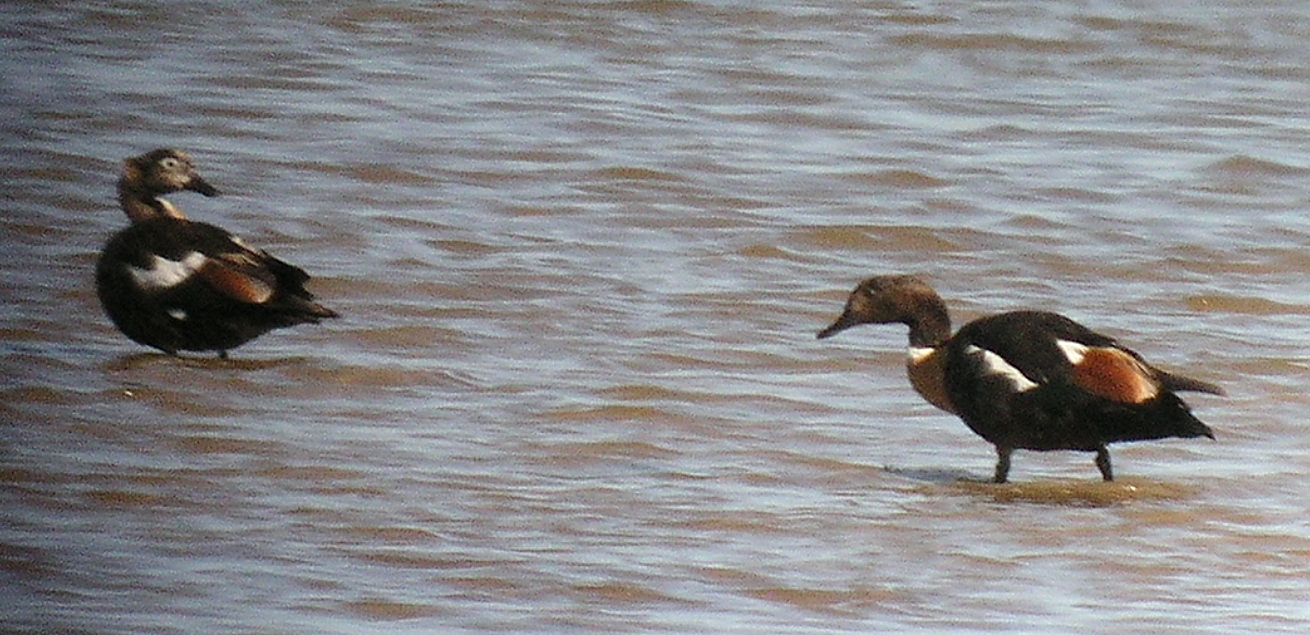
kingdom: Animalia
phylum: Chordata
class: Aves
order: Anseriformes
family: Anatidae
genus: Tadorna
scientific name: Tadorna tadornoides
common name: Australian shelduck
